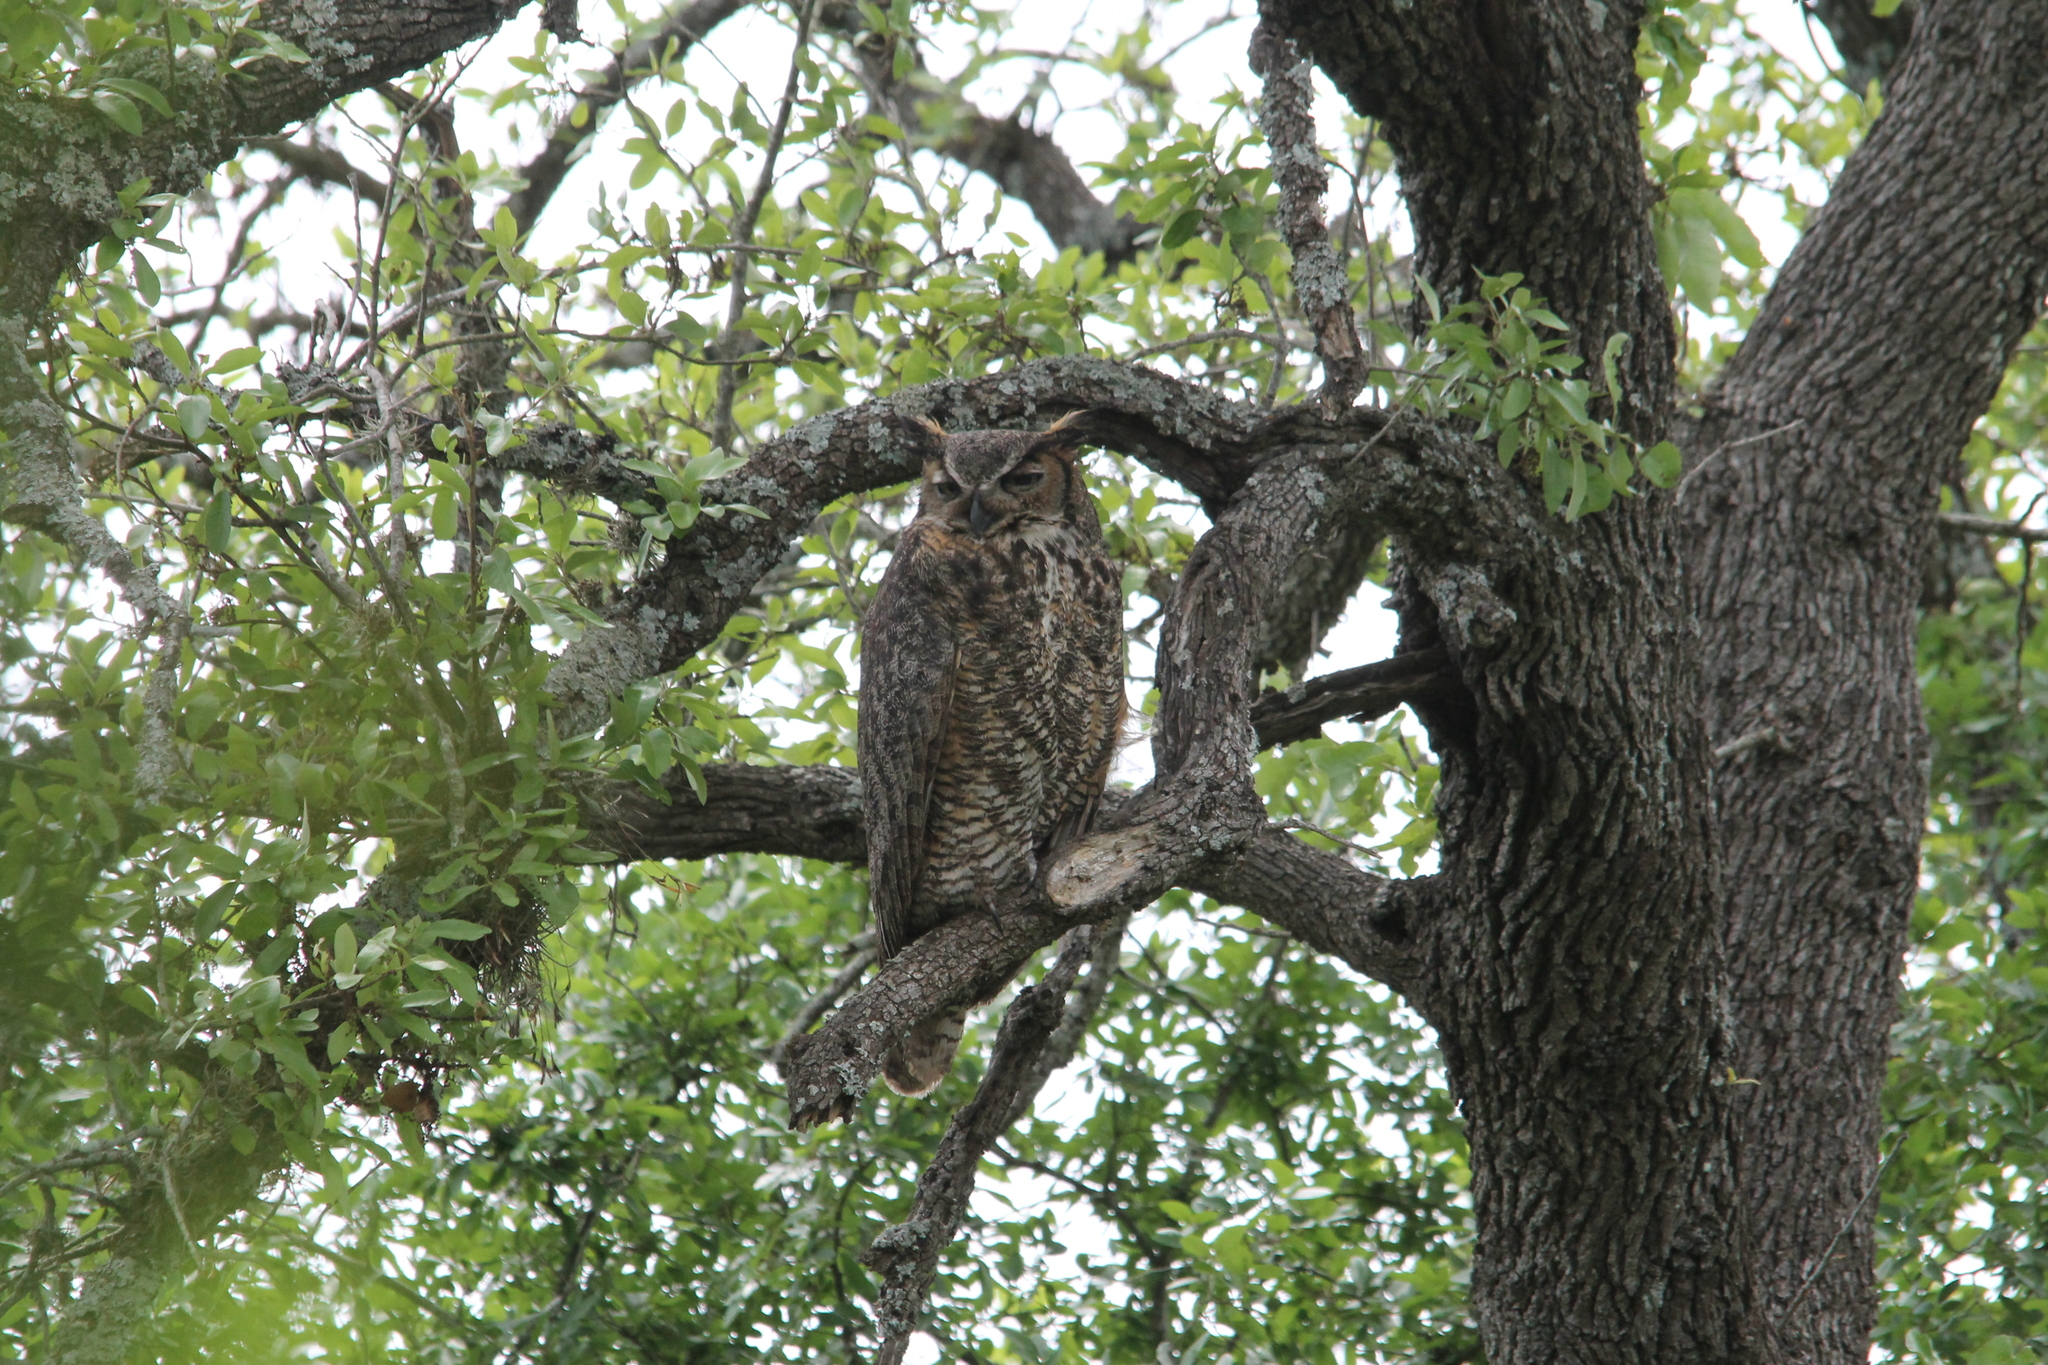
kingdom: Animalia
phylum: Chordata
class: Aves
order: Strigiformes
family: Strigidae
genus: Bubo
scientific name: Bubo virginianus
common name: Great horned owl
